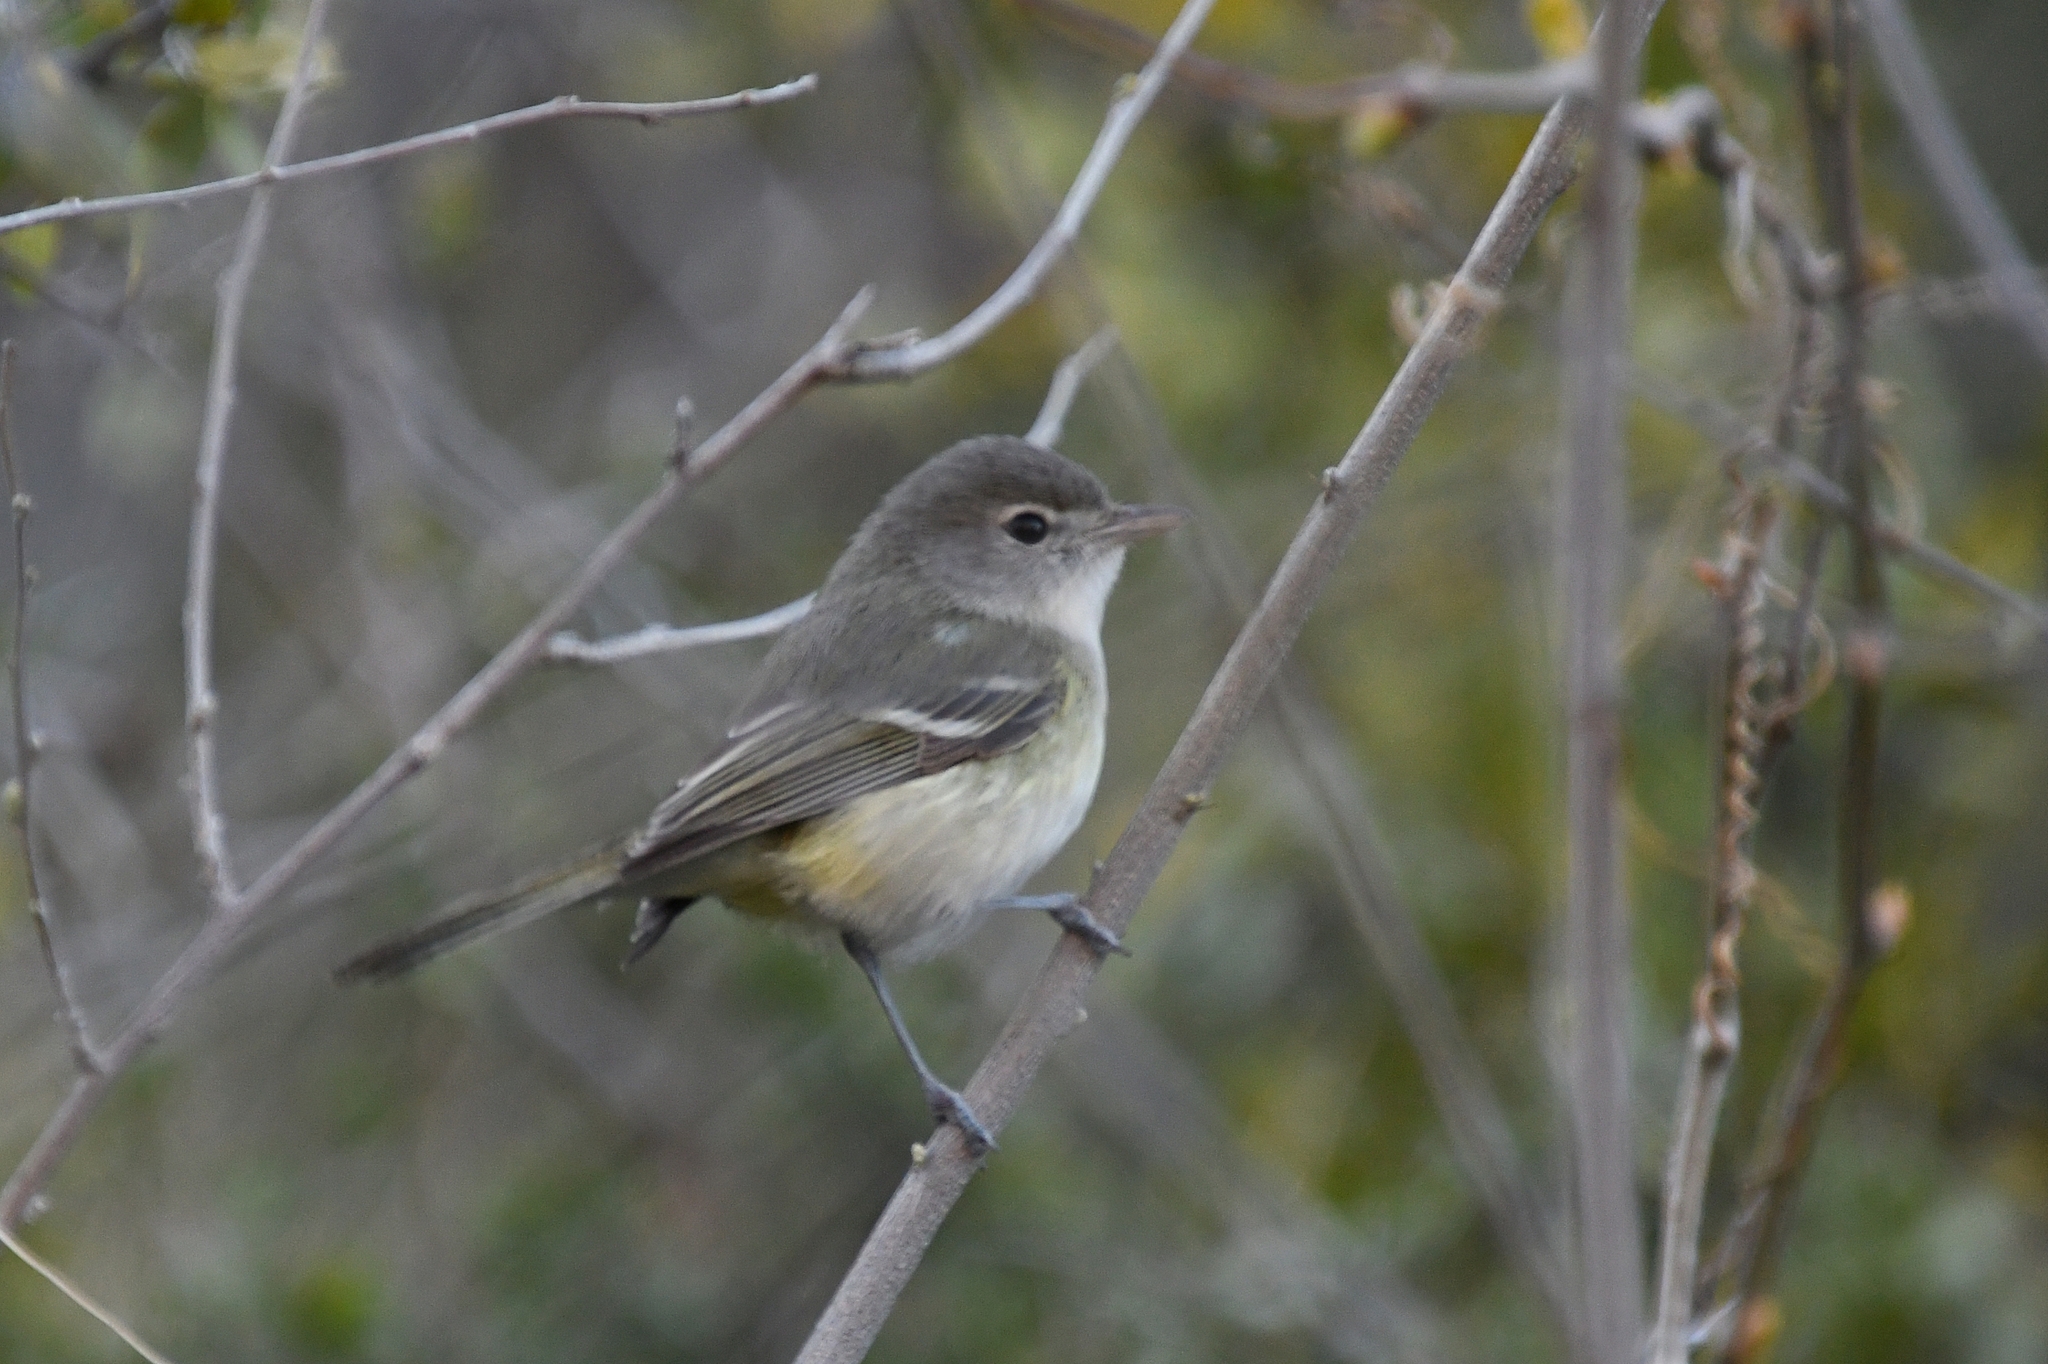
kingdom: Animalia
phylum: Chordata
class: Aves
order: Passeriformes
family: Vireonidae
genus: Vireo
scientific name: Vireo bellii
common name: Bell's vireo
